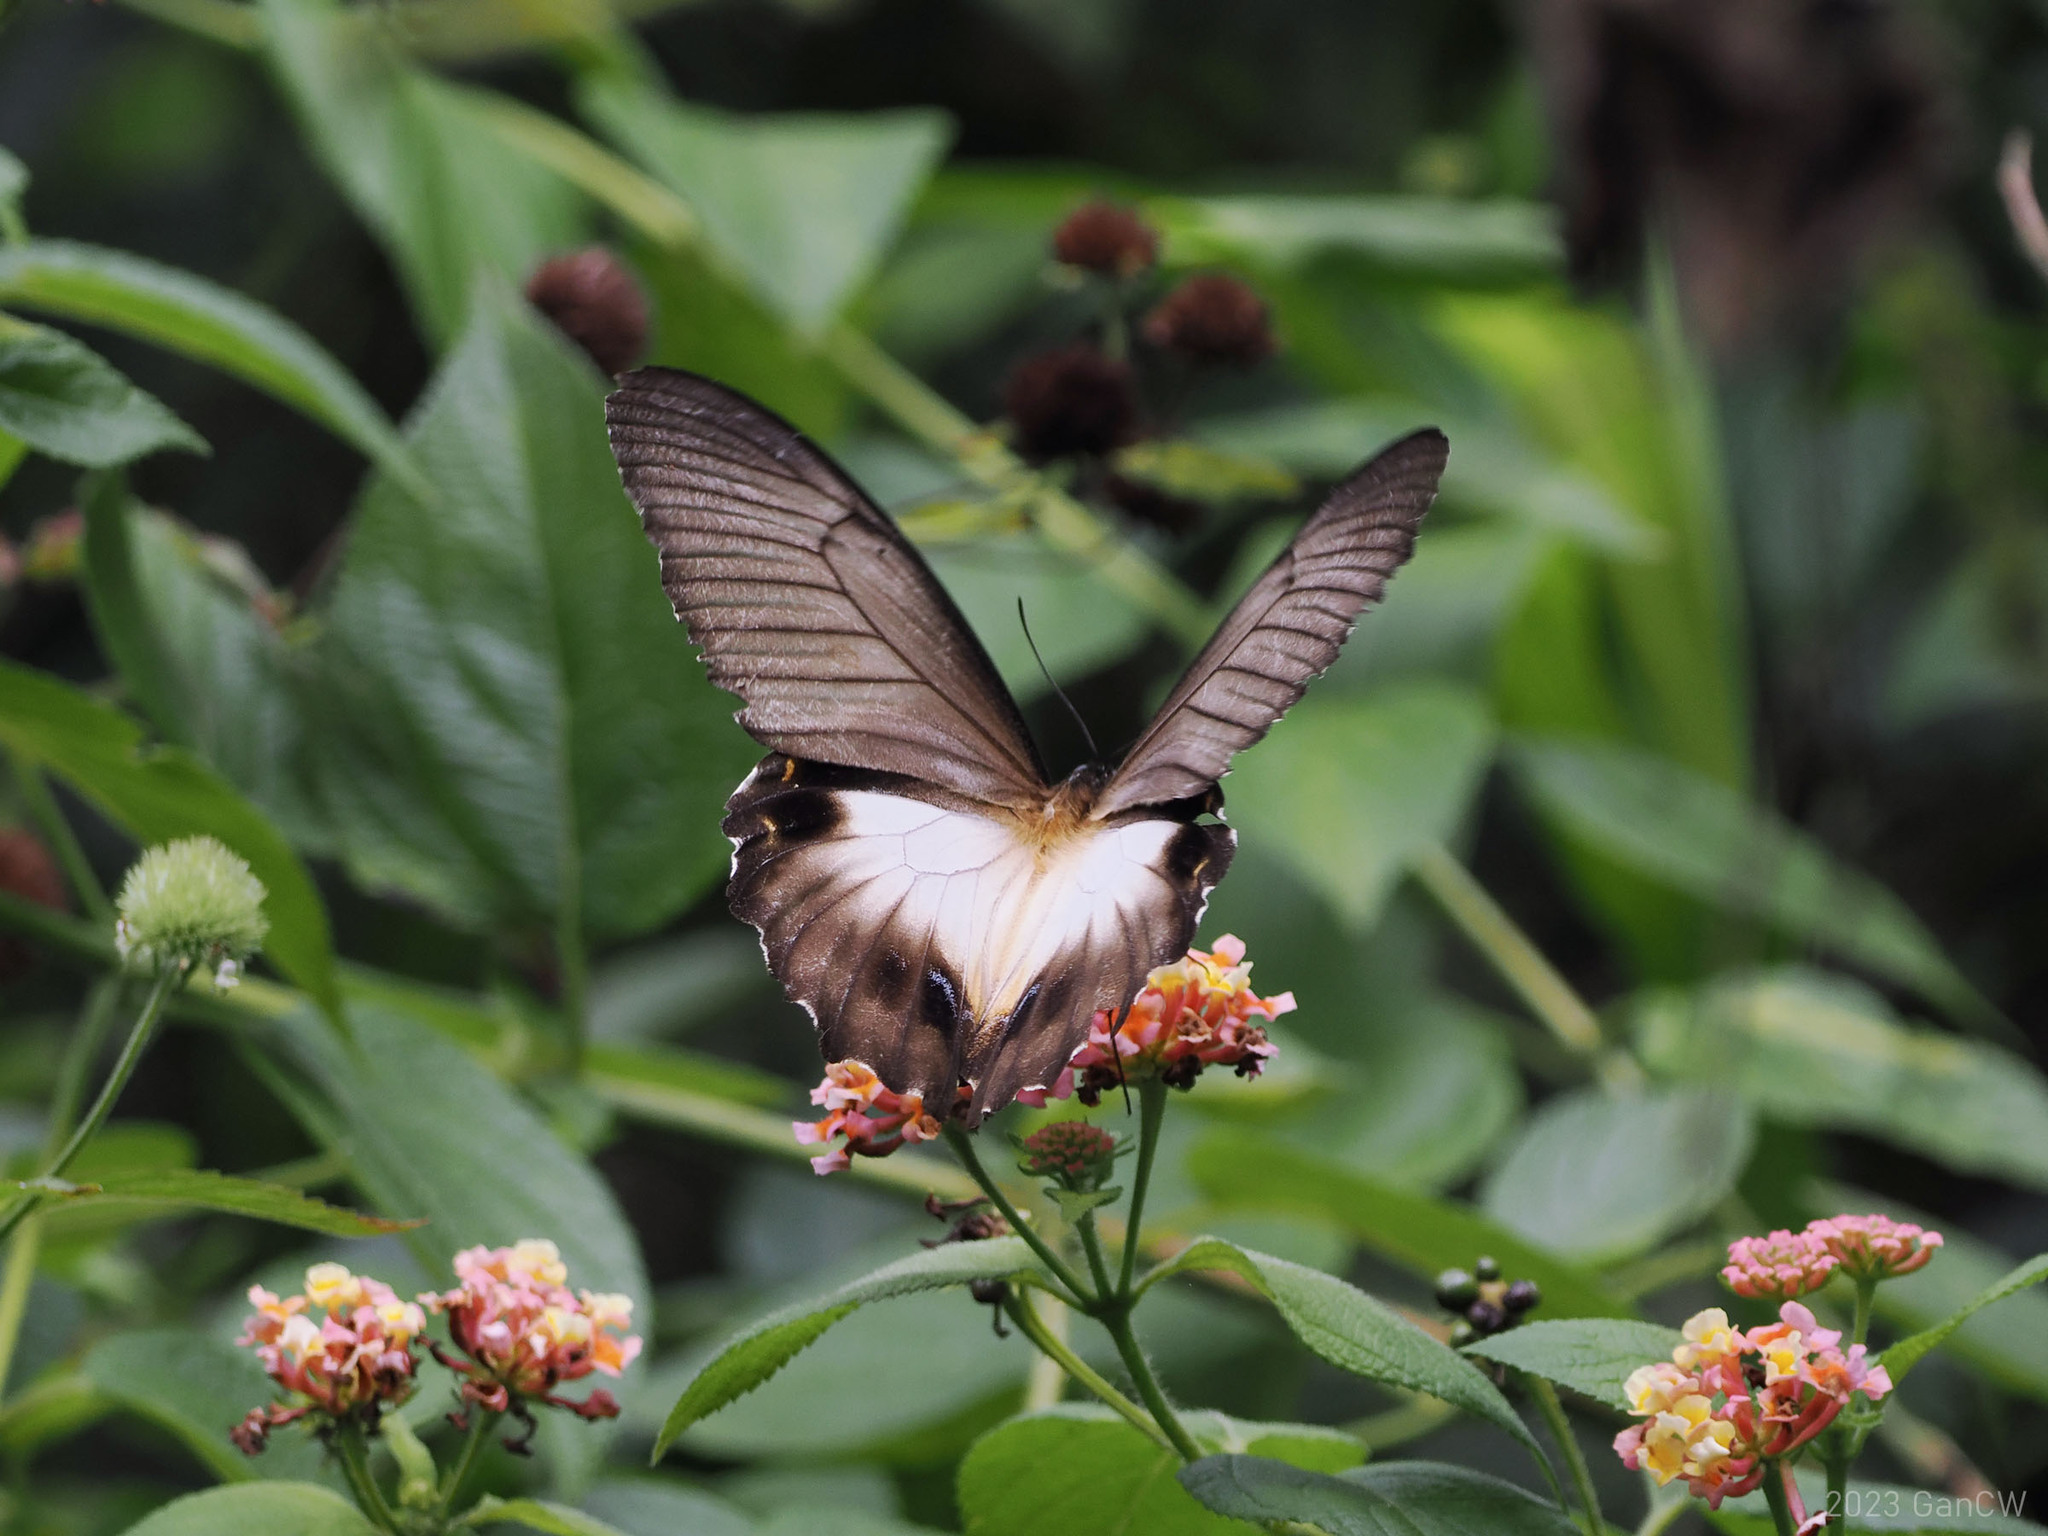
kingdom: Animalia
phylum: Arthropoda
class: Insecta
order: Lepidoptera
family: Papilionidae
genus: Papilio
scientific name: Papilio orion
